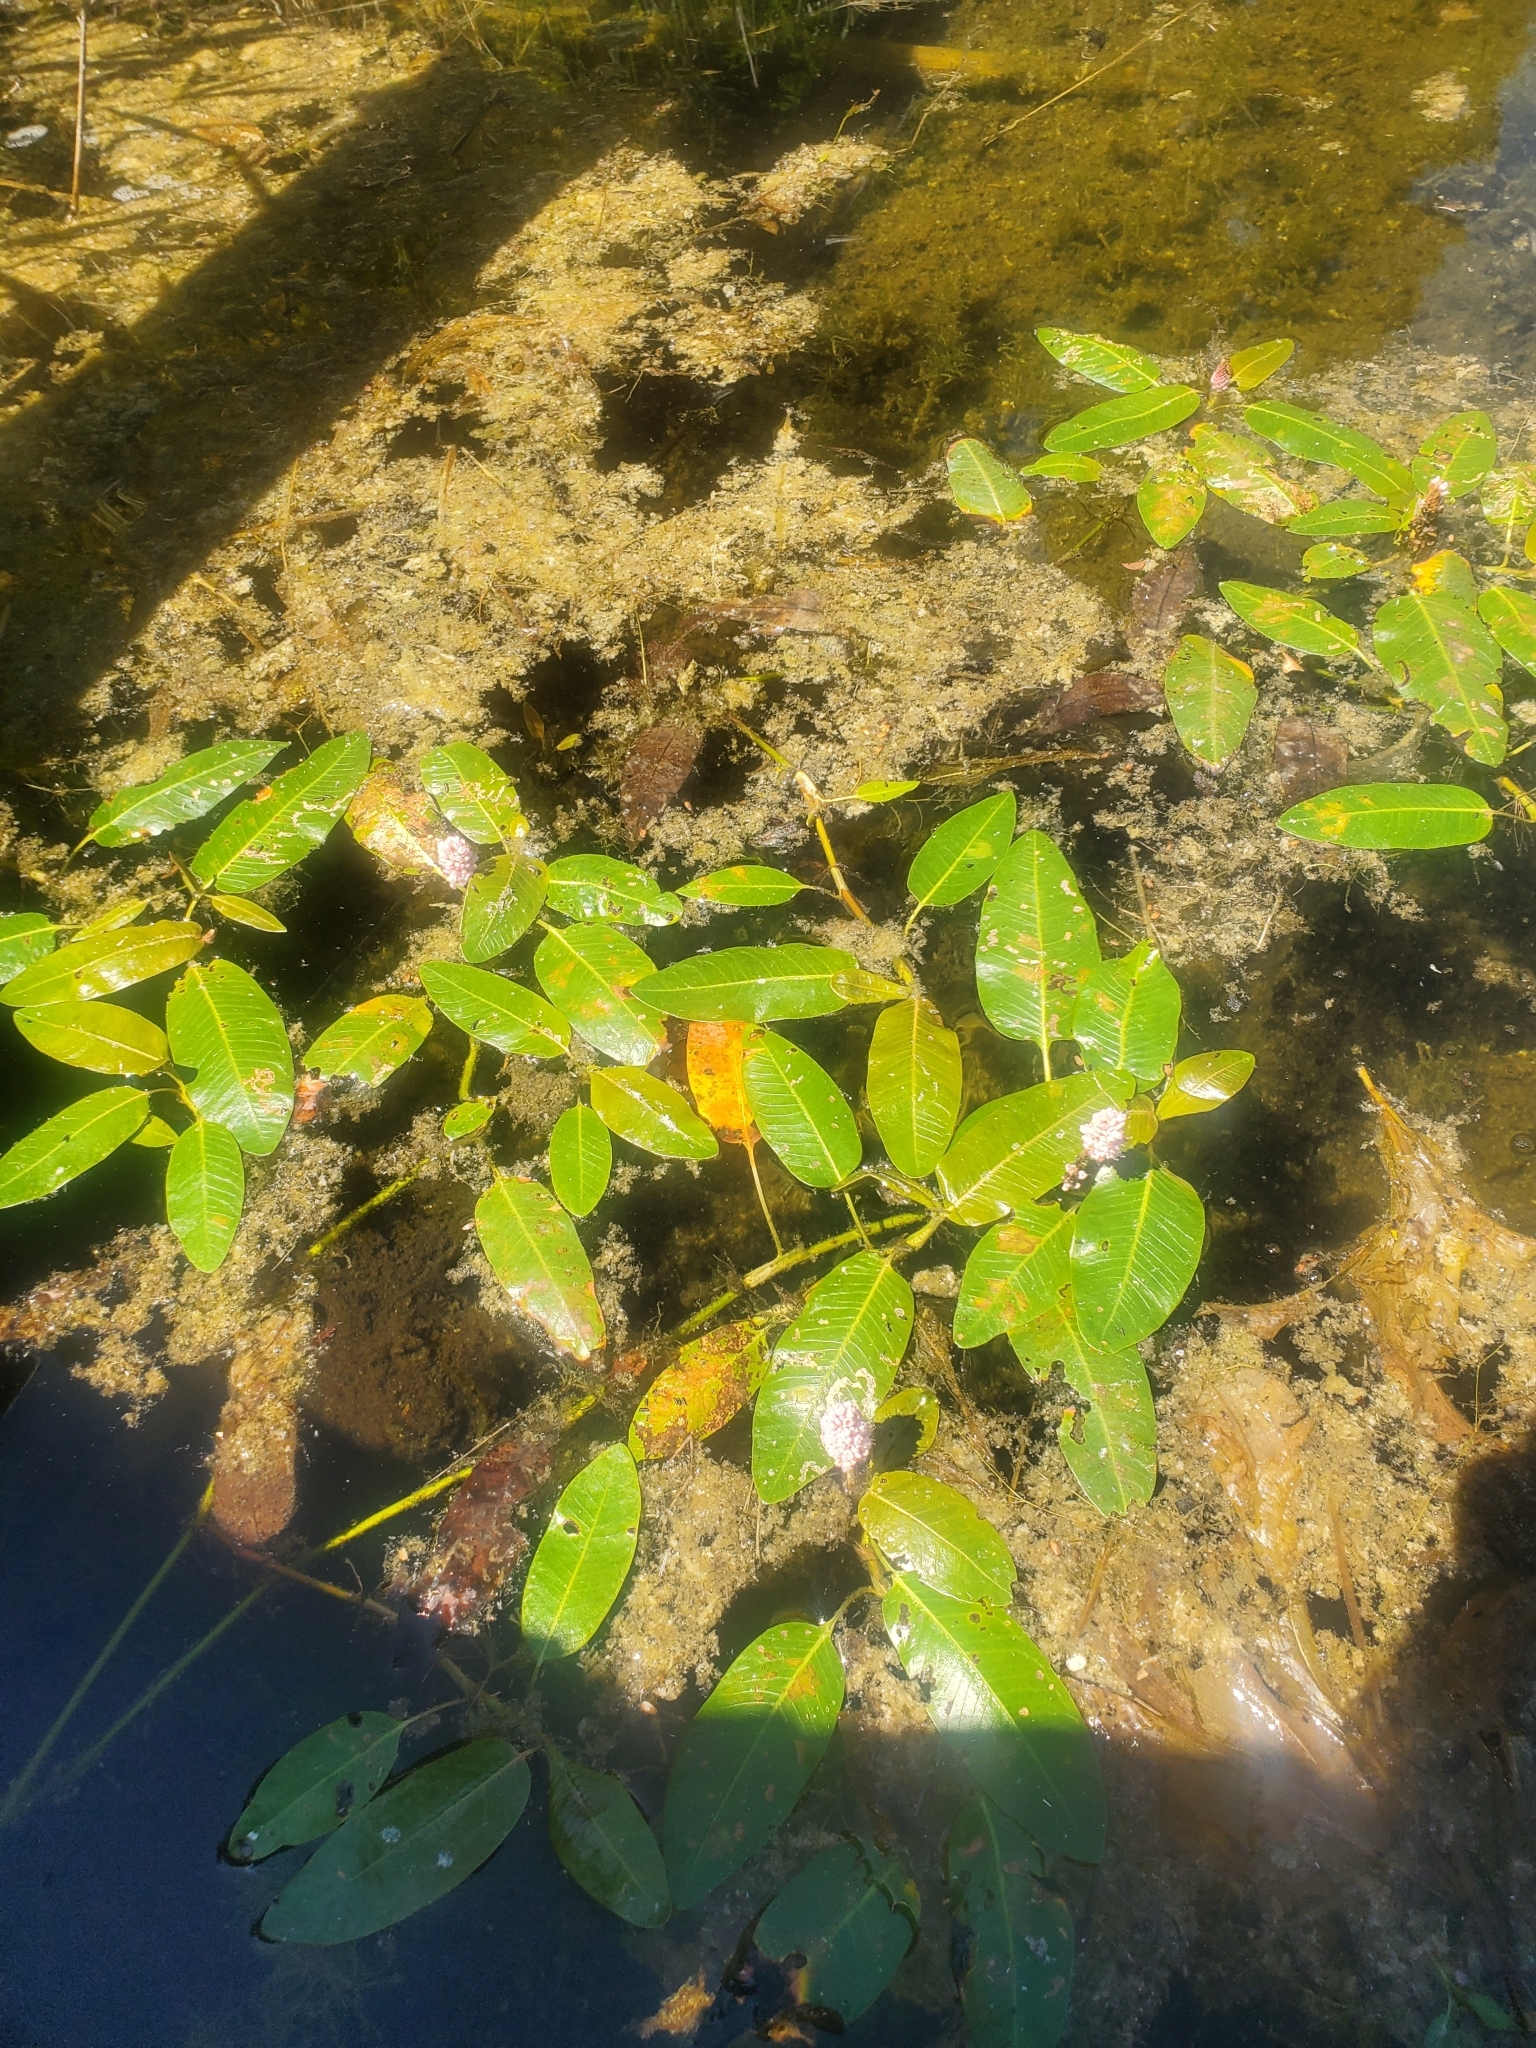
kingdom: Plantae
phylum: Tracheophyta
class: Magnoliopsida
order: Caryophyllales
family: Polygonaceae
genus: Persicaria
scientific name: Persicaria amphibia
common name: Amphibious bistort
